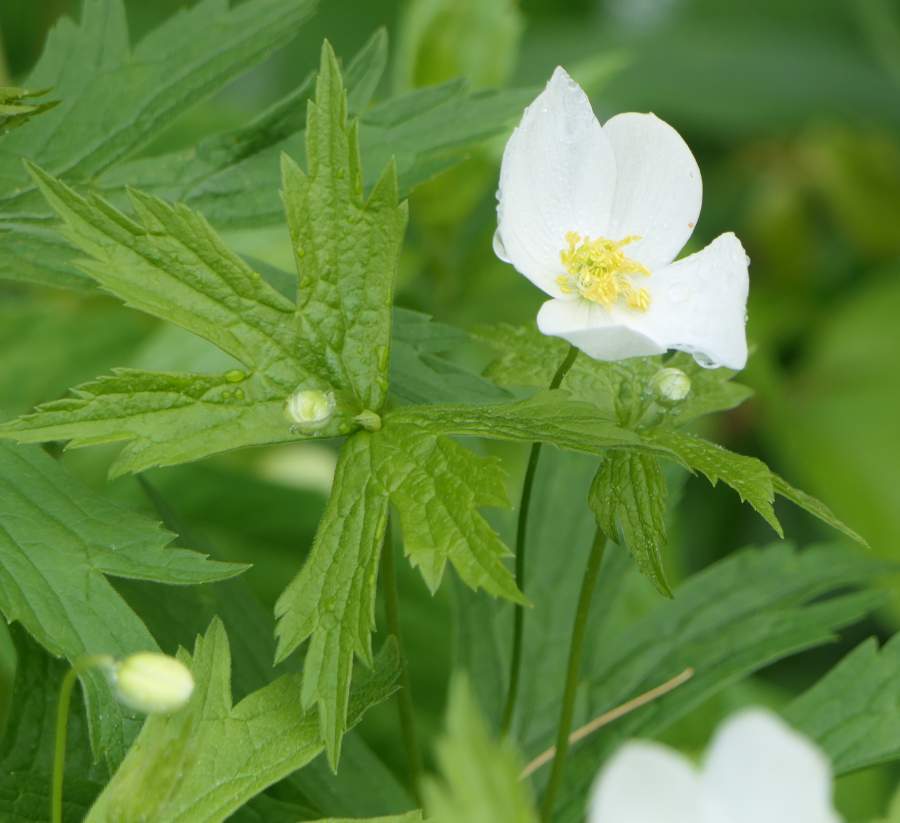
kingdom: Plantae
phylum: Tracheophyta
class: Magnoliopsida
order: Ranunculales
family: Ranunculaceae
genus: Anemonastrum
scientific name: Anemonastrum canadense
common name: Canada anemone
